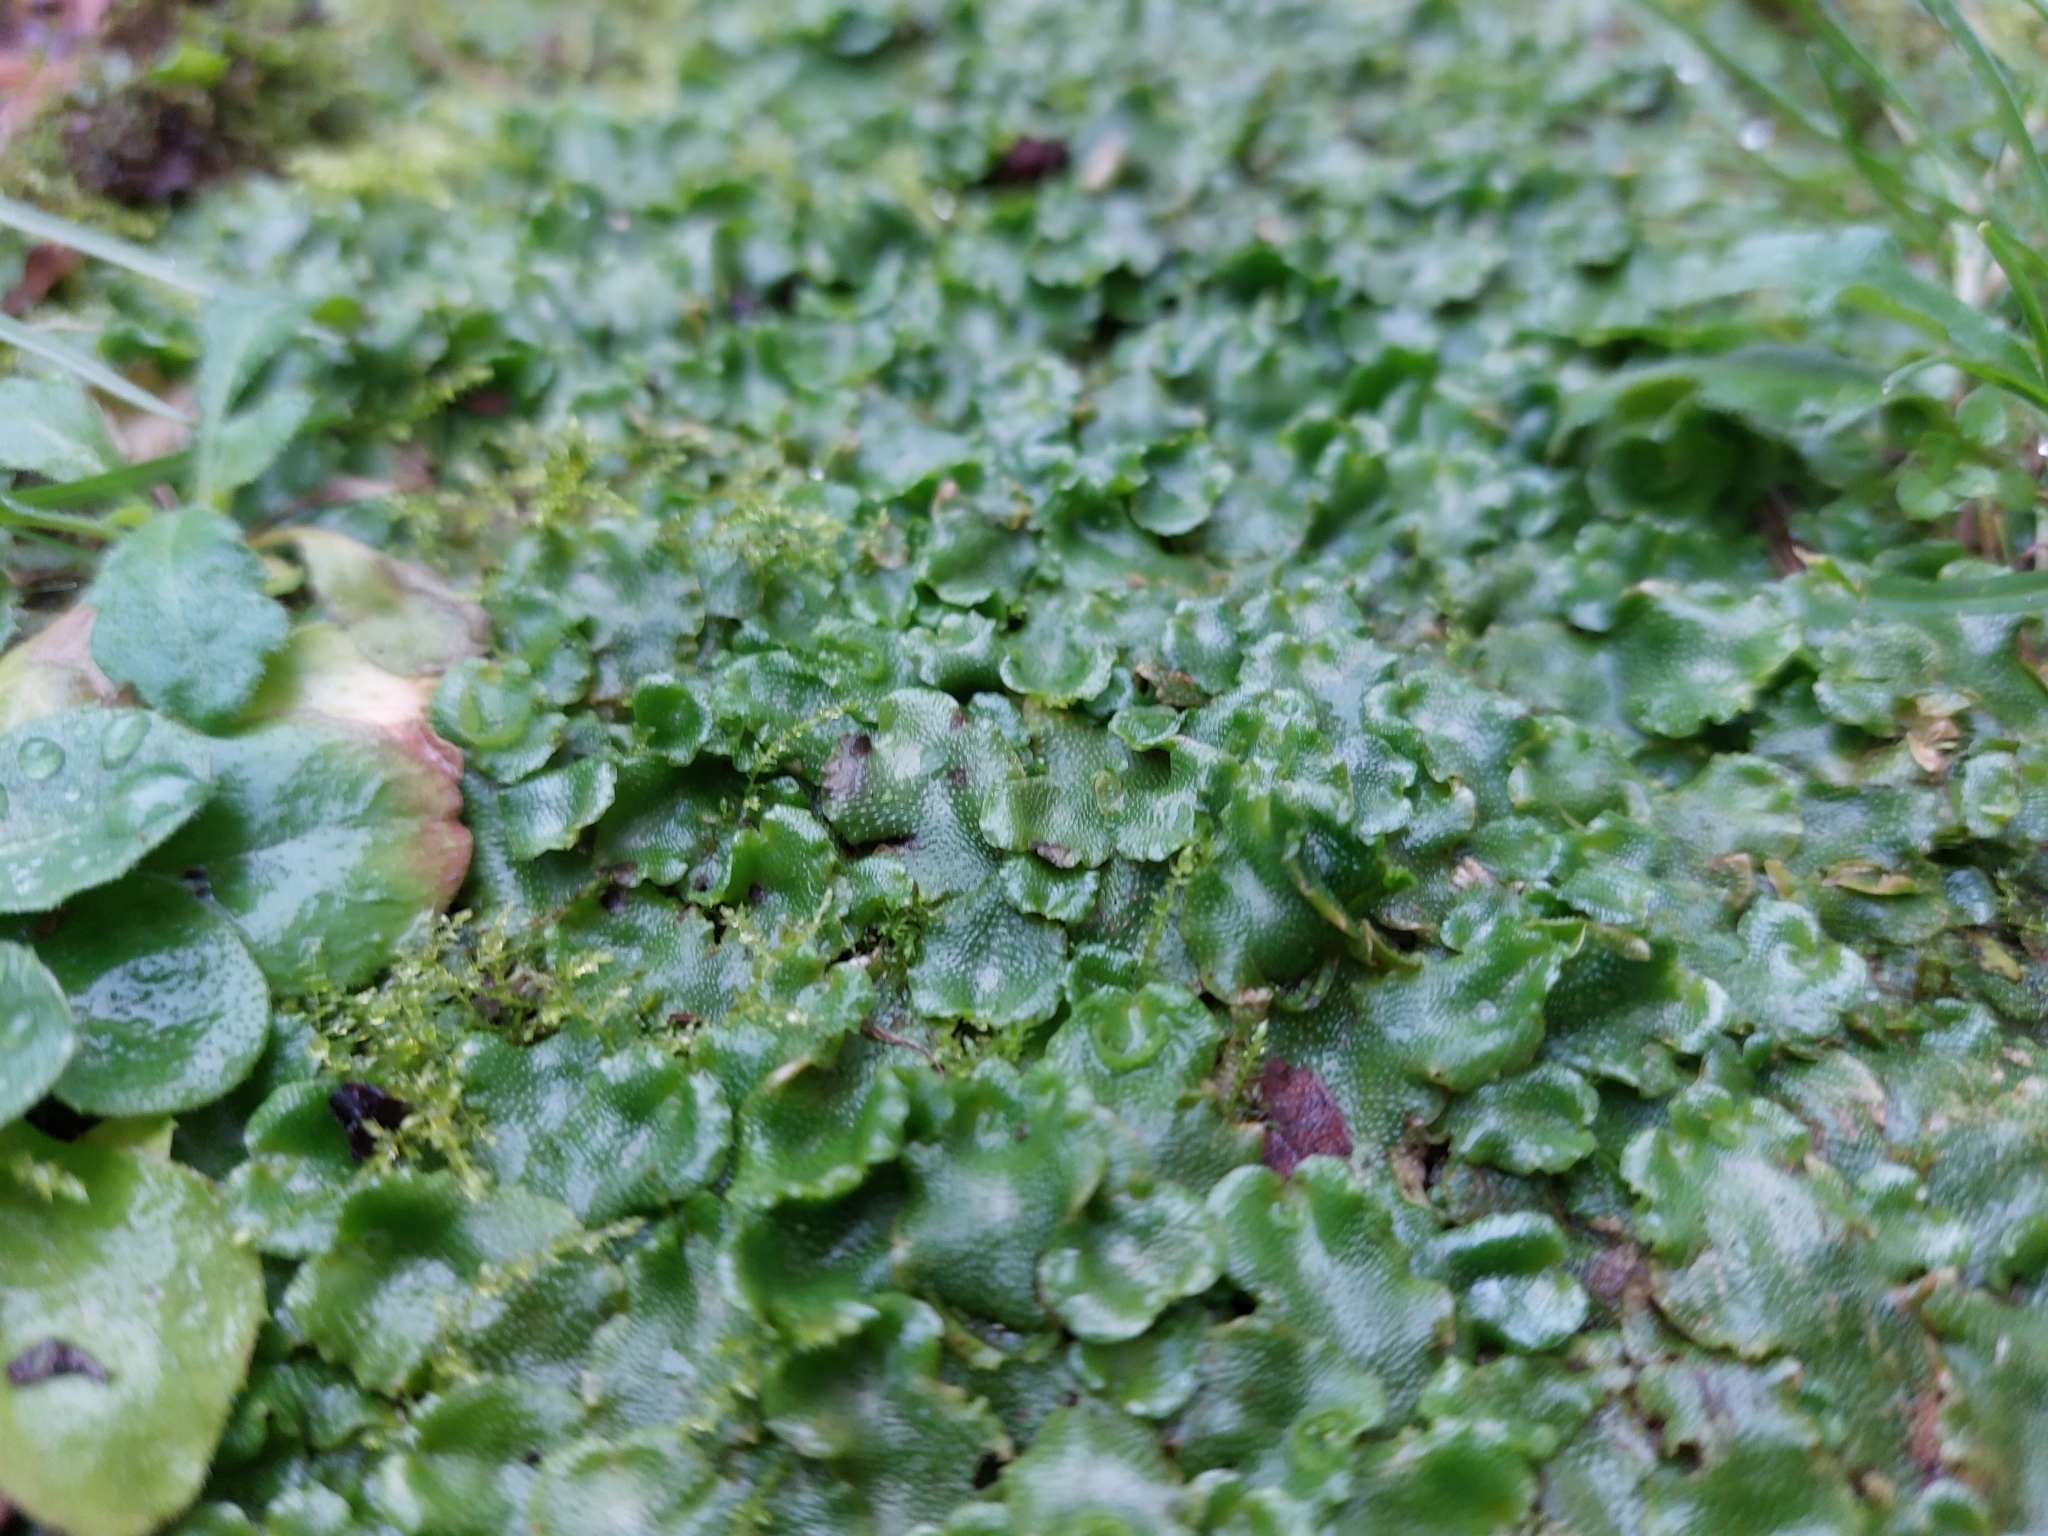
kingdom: Plantae
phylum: Marchantiophyta
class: Marchantiopsida
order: Lunulariales
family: Lunulariaceae
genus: Lunularia
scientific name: Lunularia cruciata
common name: Crescent-cup liverwort
